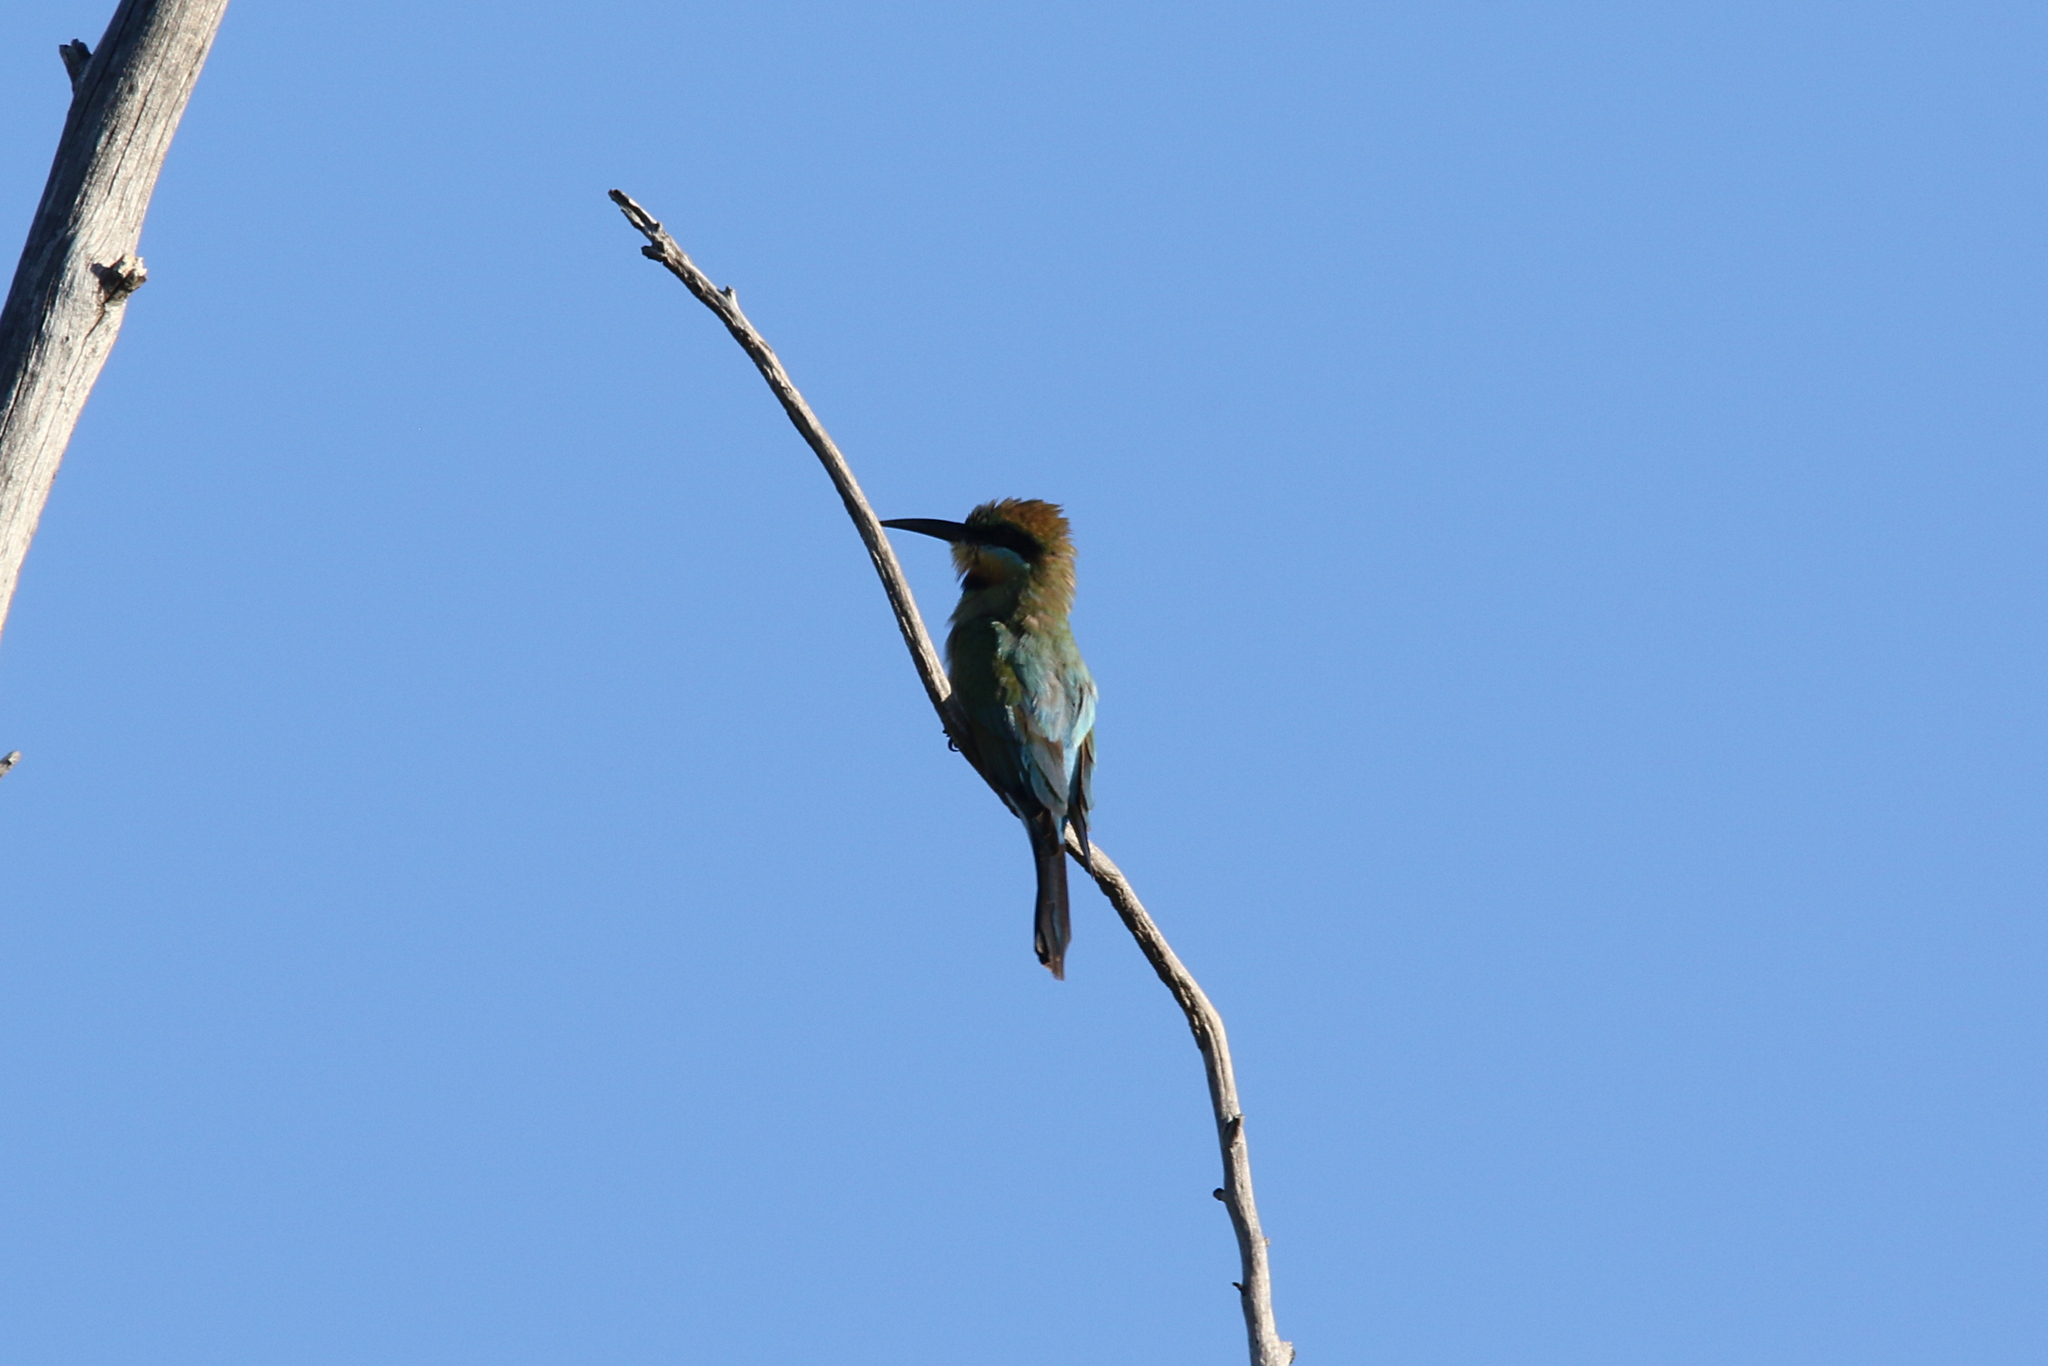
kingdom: Animalia
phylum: Chordata
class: Aves
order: Coraciiformes
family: Meropidae
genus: Merops
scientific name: Merops ornatus
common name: Rainbow bee-eater
